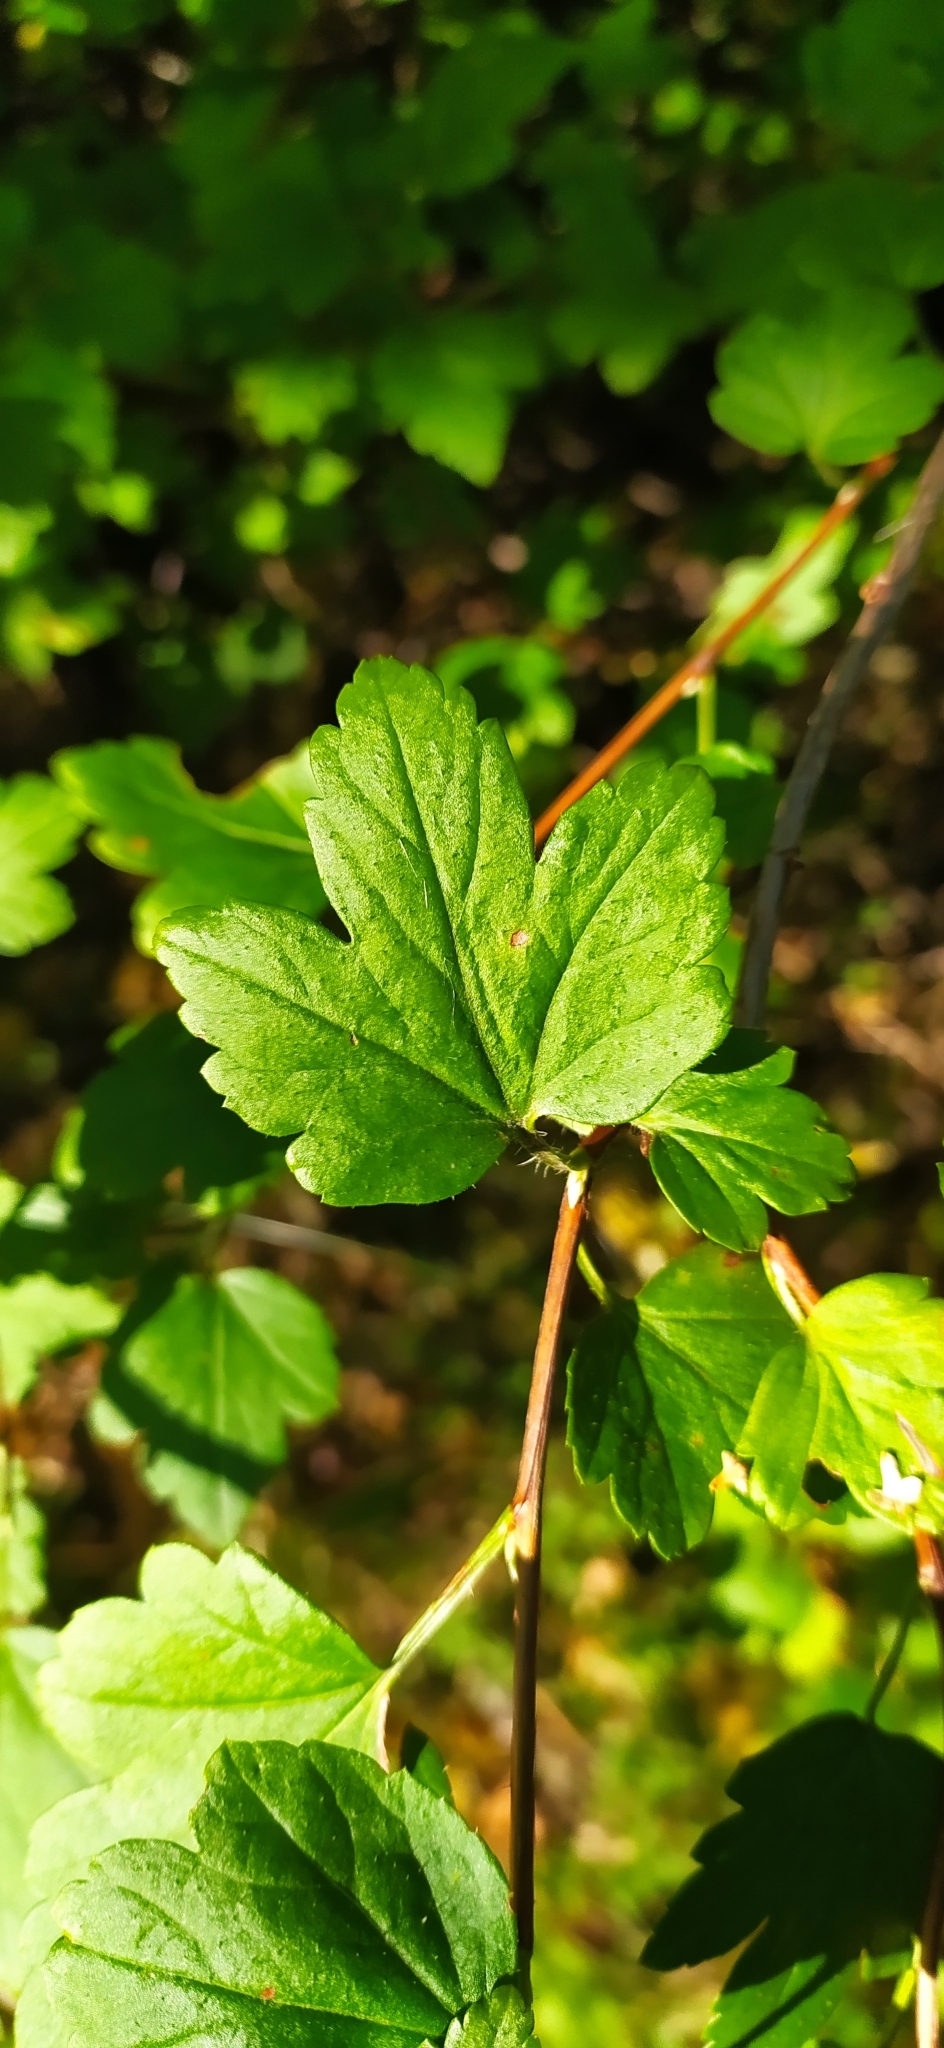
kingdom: Plantae
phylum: Tracheophyta
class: Magnoliopsida
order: Saxifragales
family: Grossulariaceae
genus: Ribes
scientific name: Ribes alpinum
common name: Alpine currant
